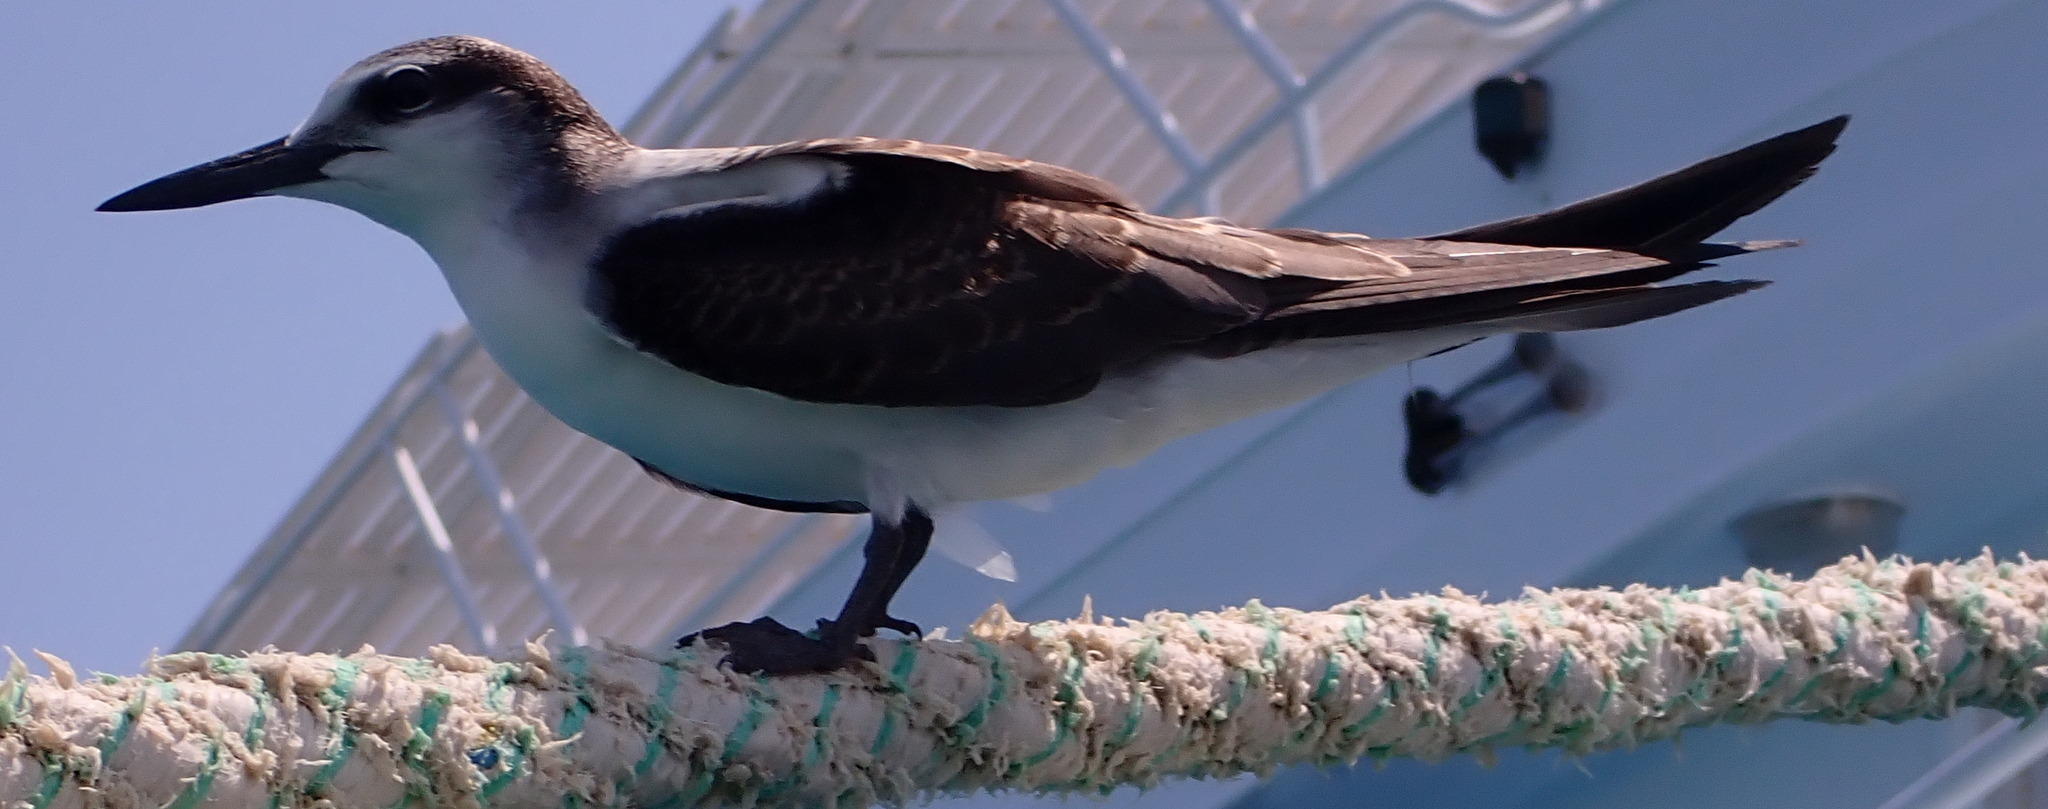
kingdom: Animalia
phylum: Chordata
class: Aves
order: Charadriiformes
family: Laridae
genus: Onychoprion
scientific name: Onychoprion anaethetus
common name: Bridled tern
